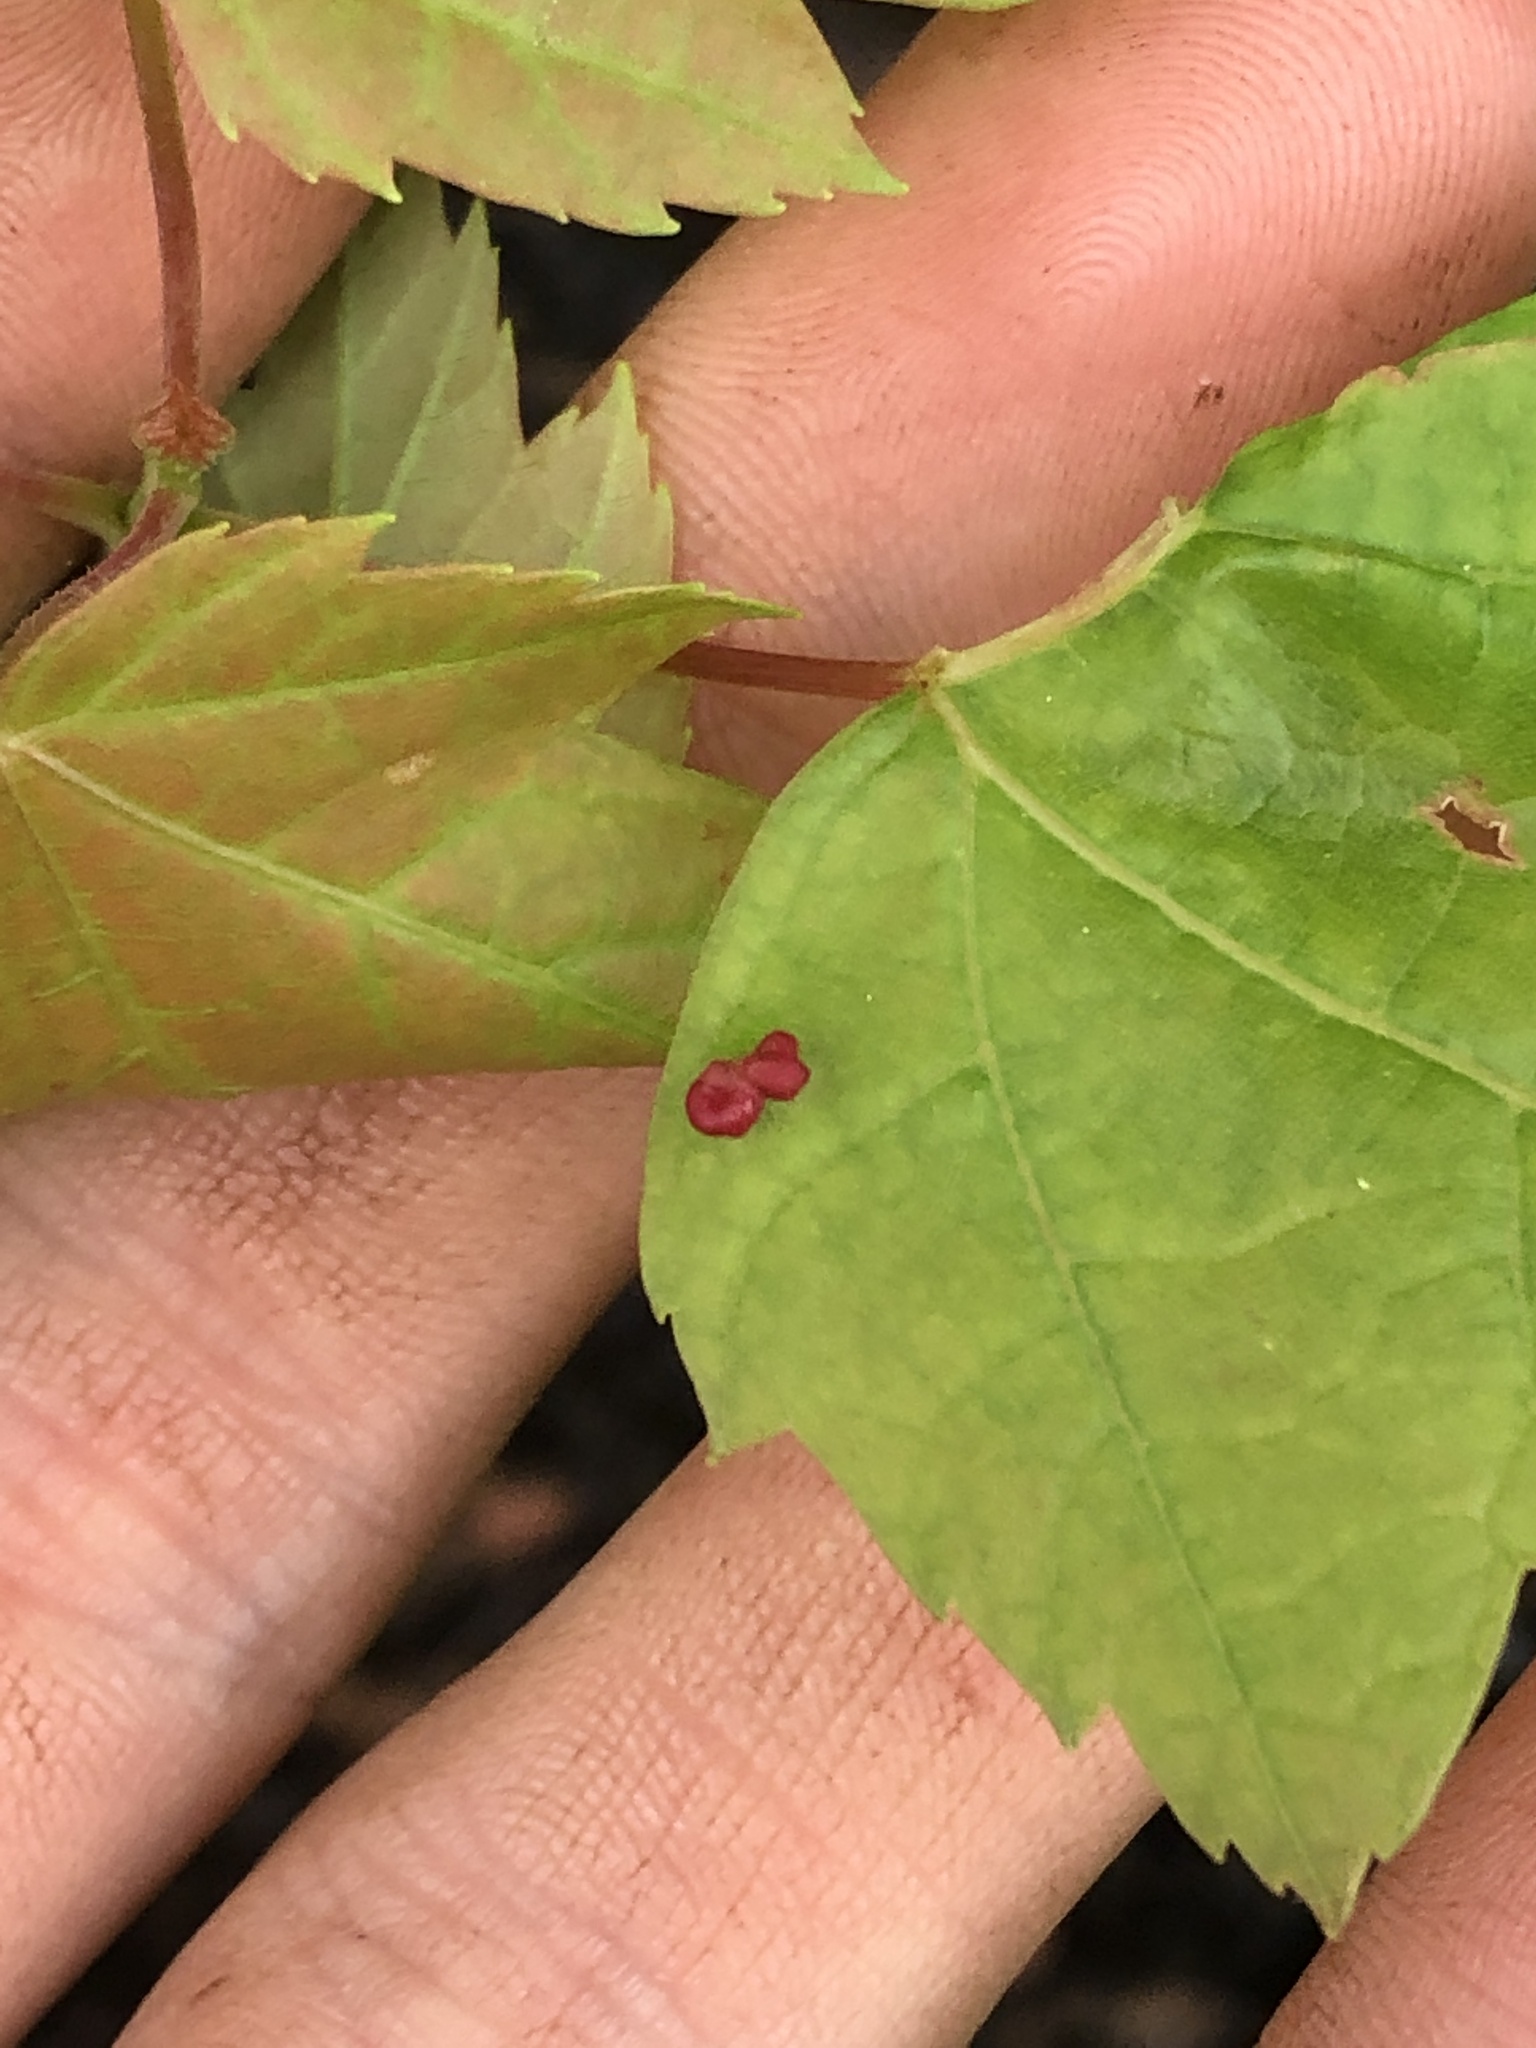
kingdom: Animalia
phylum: Arthropoda
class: Arachnida
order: Trombidiformes
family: Eriophyidae
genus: Vasates
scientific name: Vasates quadripedes
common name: Maple bladder gall mite
